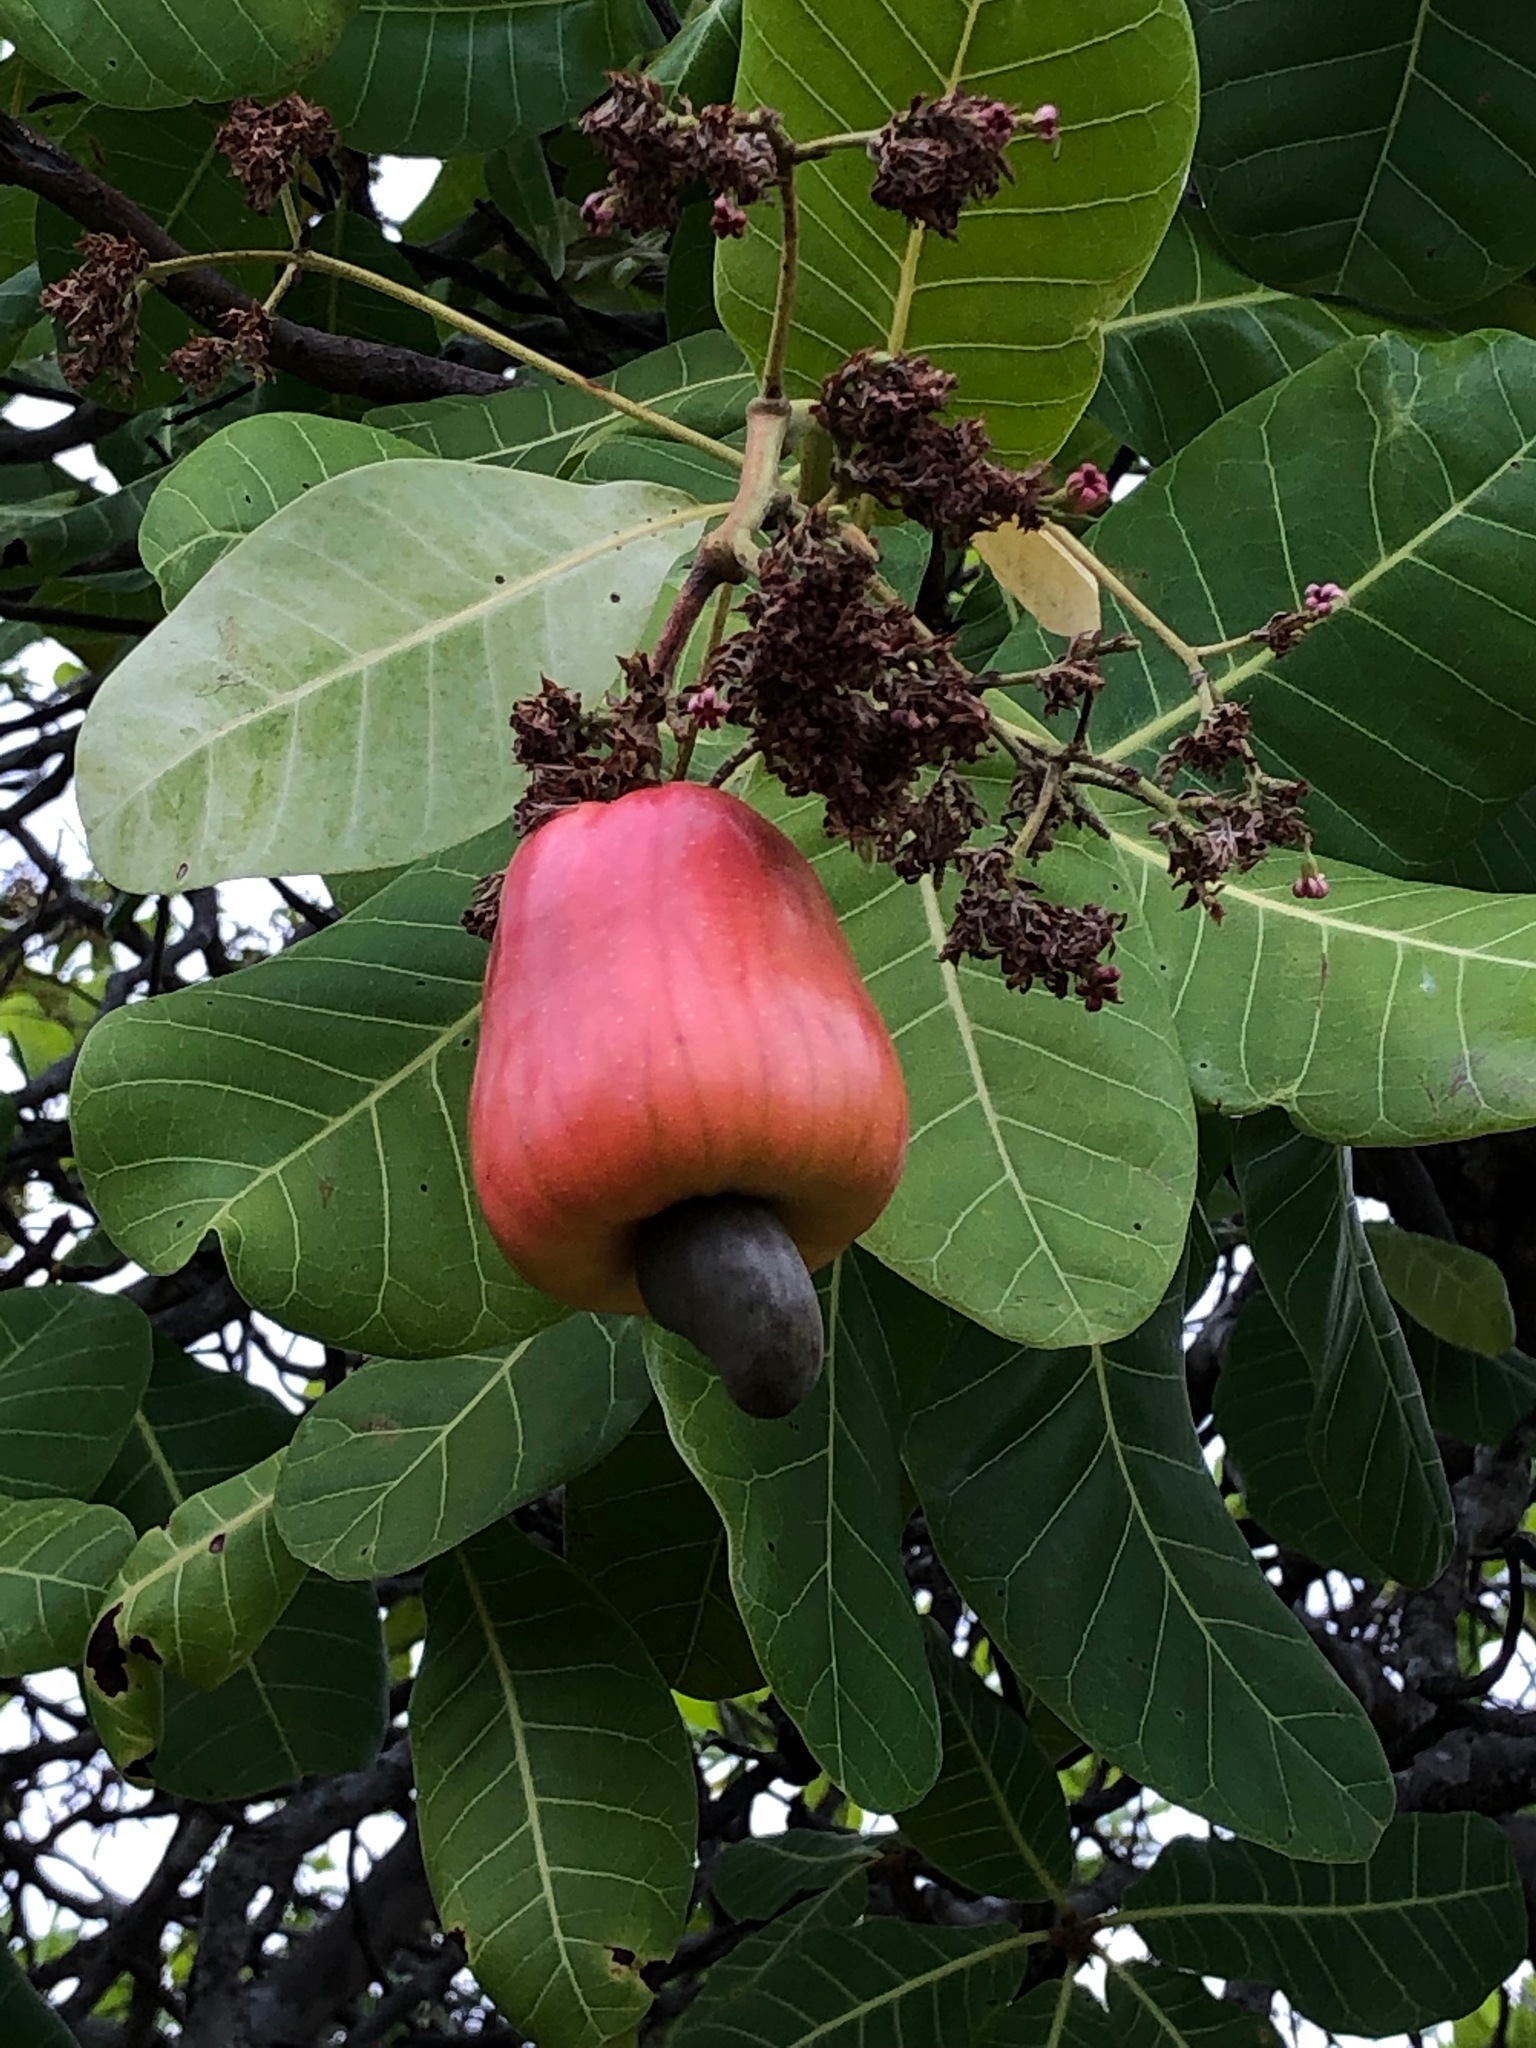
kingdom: Plantae
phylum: Tracheophyta
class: Magnoliopsida
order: Sapindales
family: Anacardiaceae
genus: Anacardium
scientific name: Anacardium occidentale
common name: Cashew
